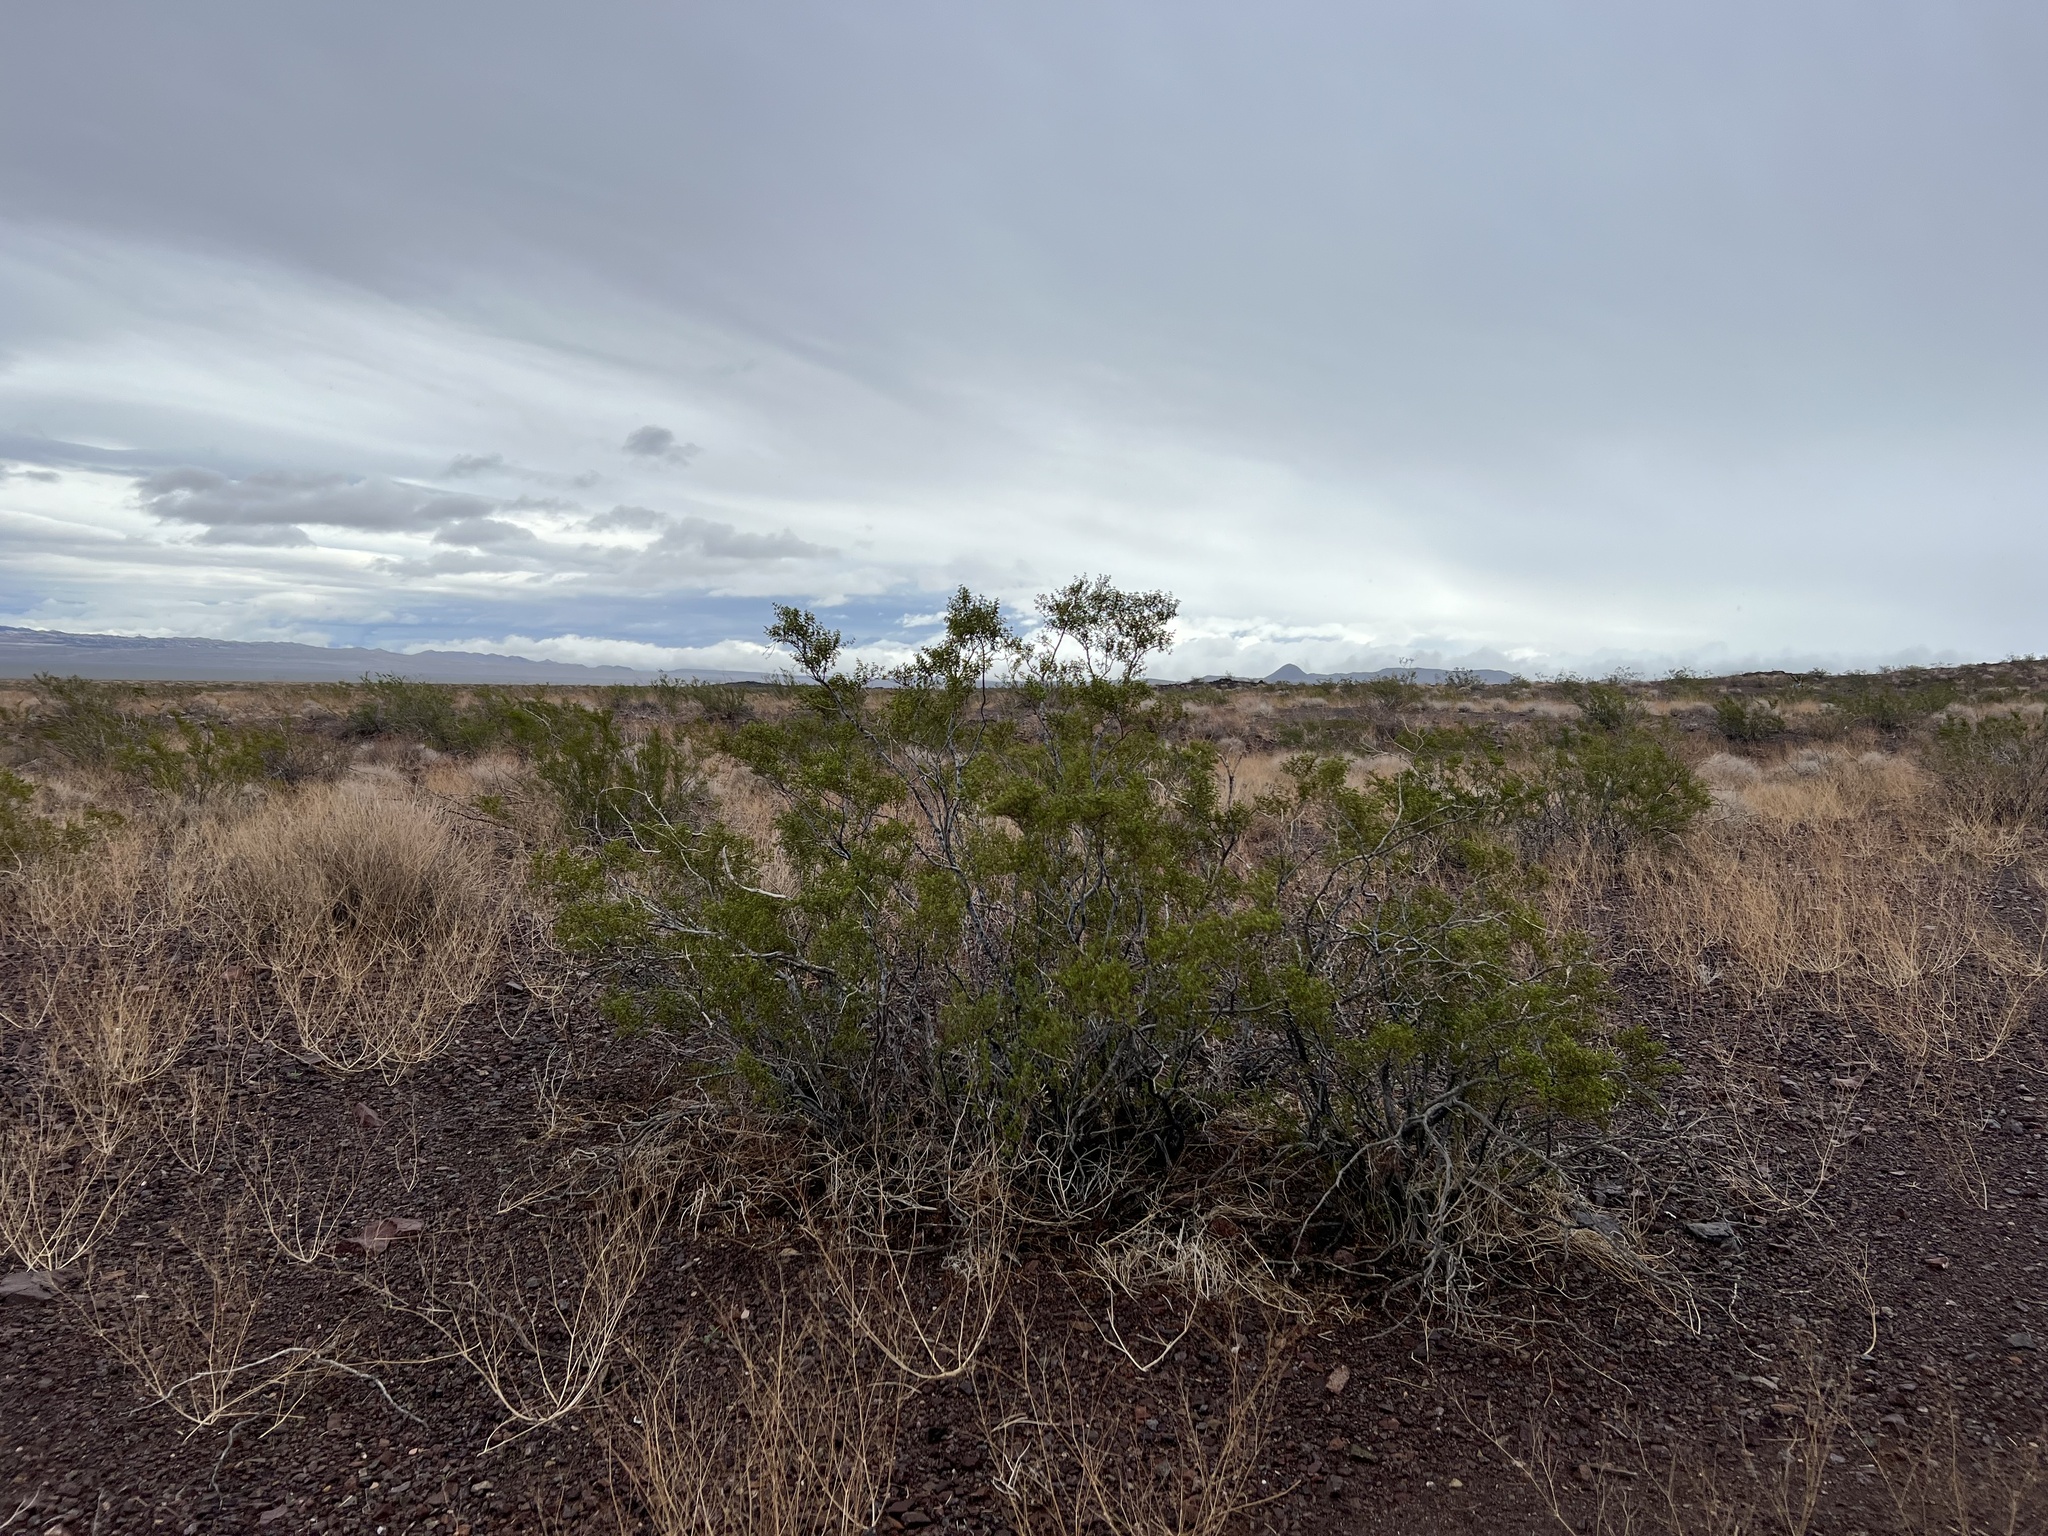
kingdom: Plantae
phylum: Tracheophyta
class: Magnoliopsida
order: Zygophyllales
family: Zygophyllaceae
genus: Larrea
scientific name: Larrea tridentata
